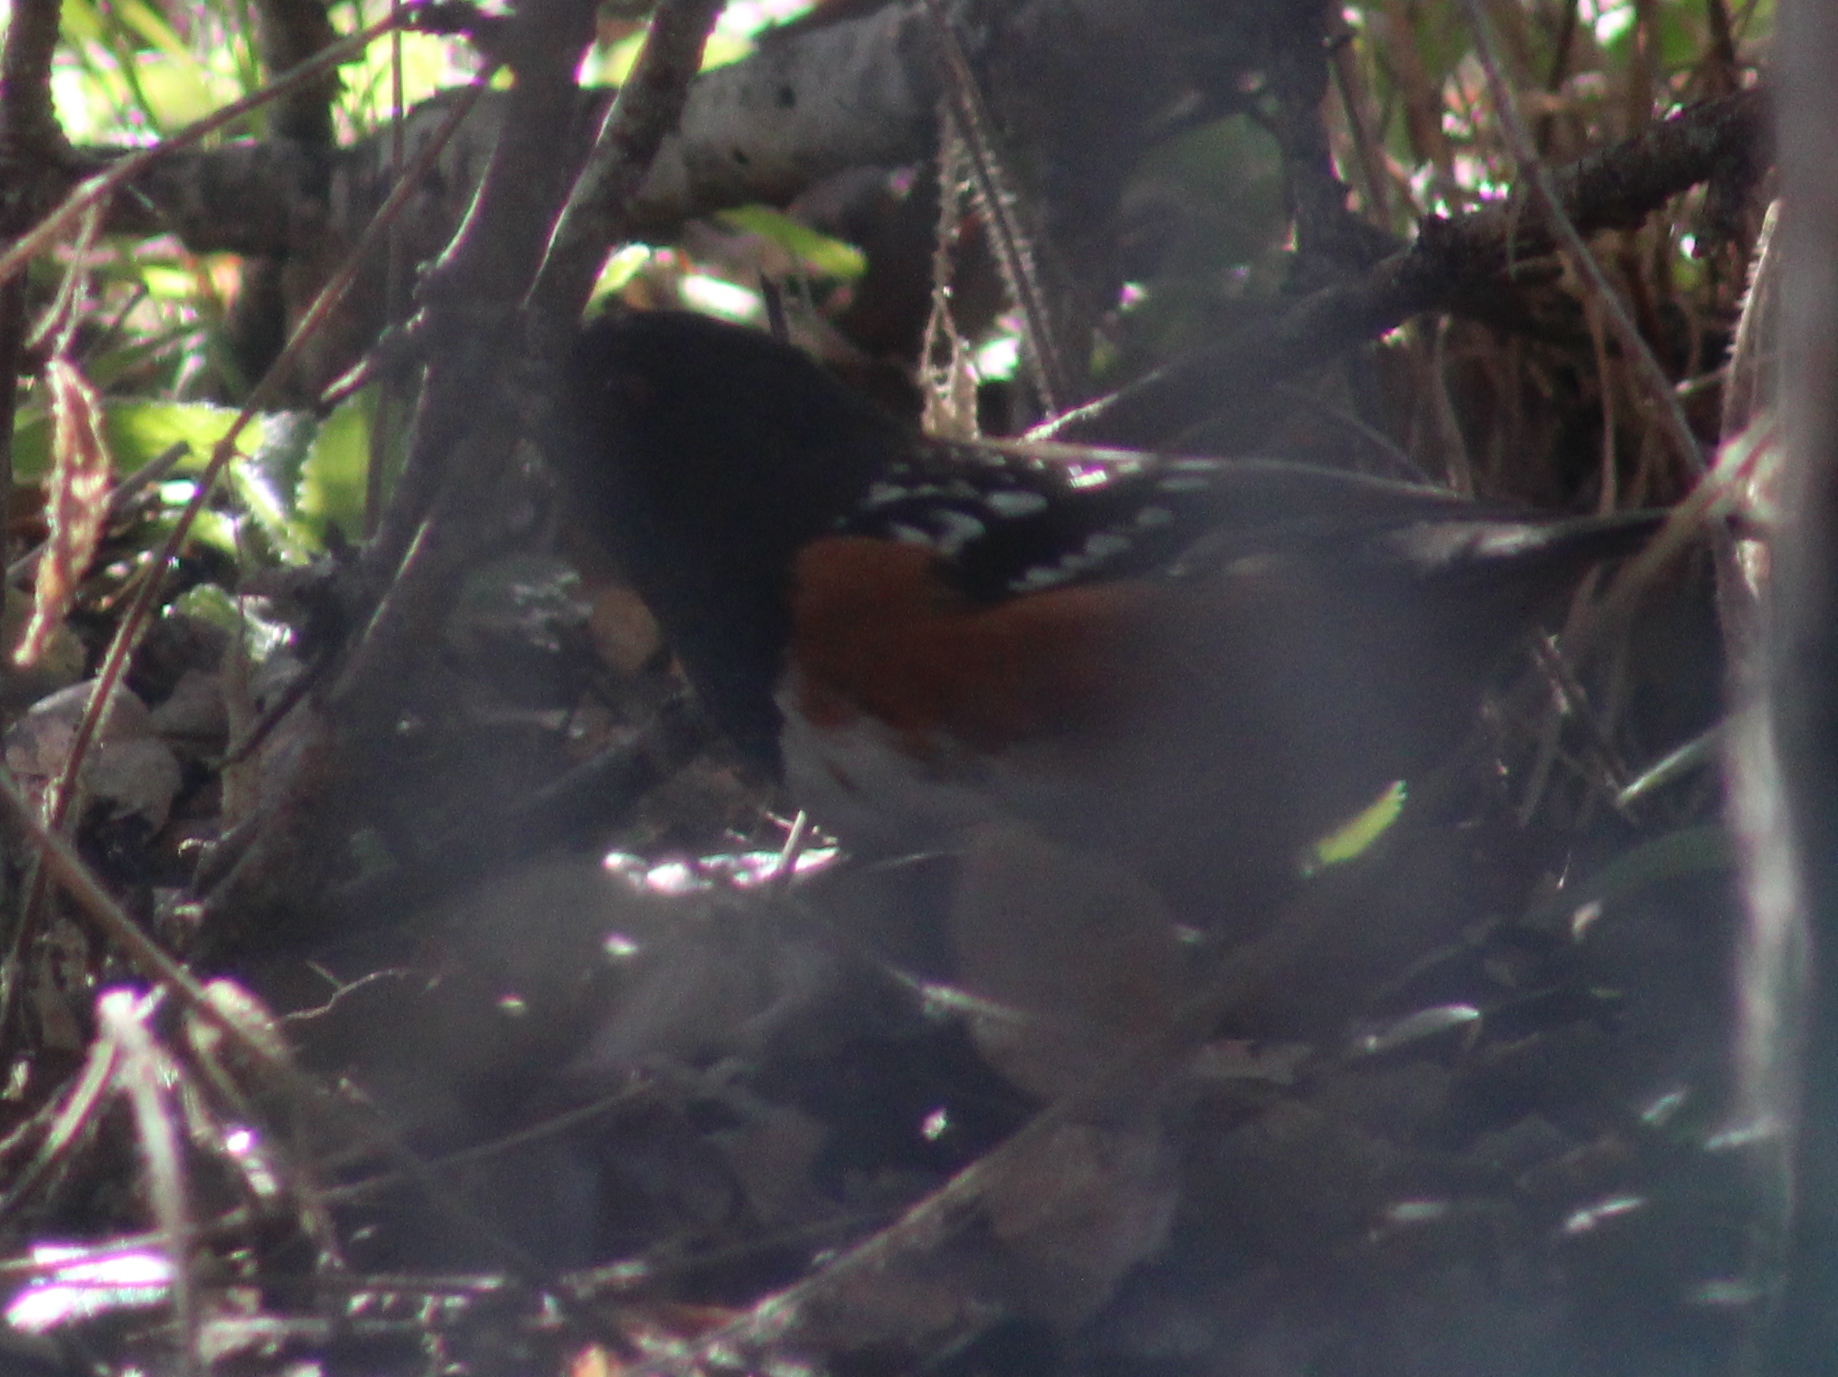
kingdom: Animalia
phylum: Chordata
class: Aves
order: Passeriformes
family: Passerellidae
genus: Pipilo
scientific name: Pipilo maculatus
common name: Spotted towhee
